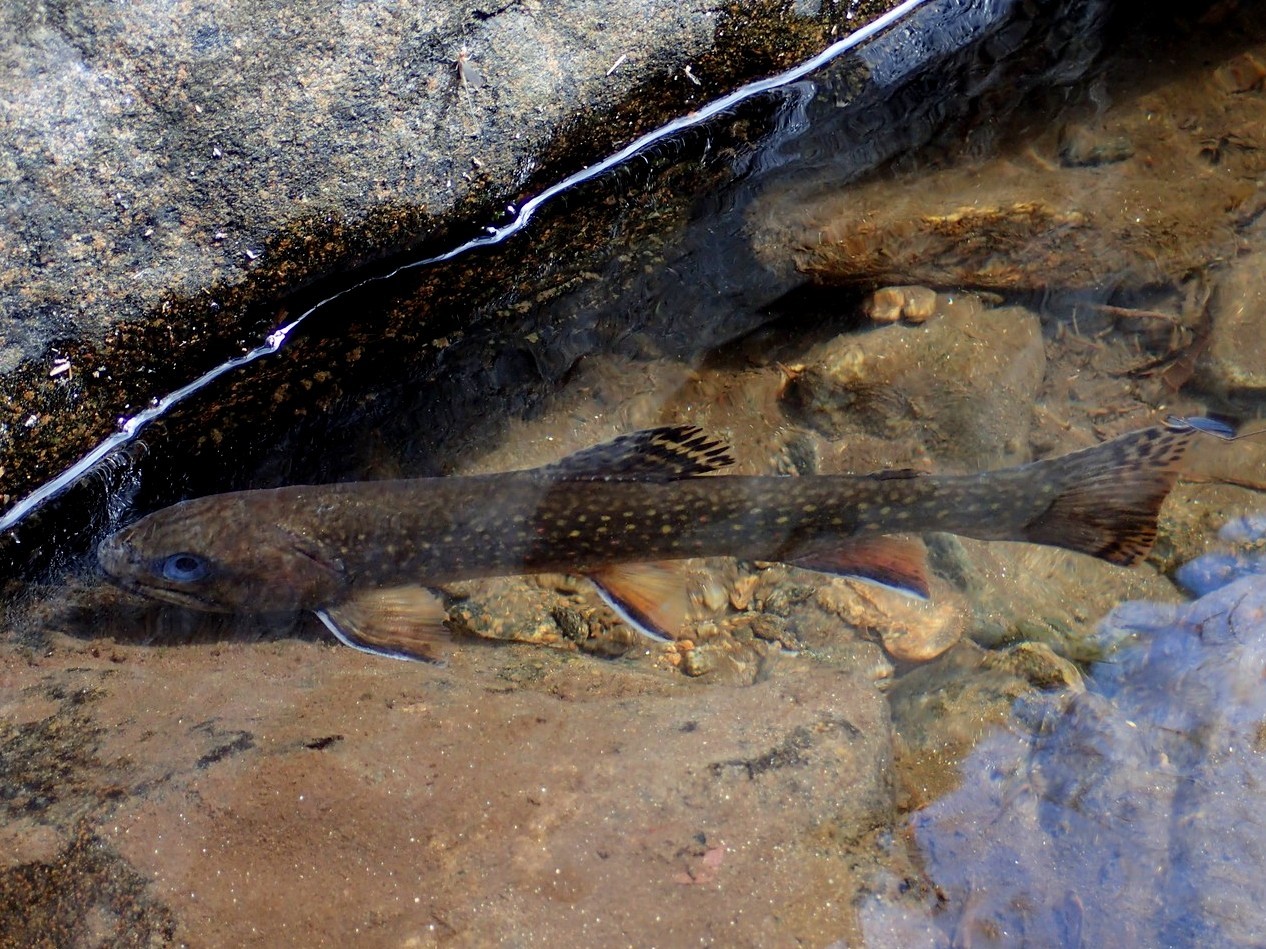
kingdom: Animalia
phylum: Chordata
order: Salmoniformes
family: Salmonidae
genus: Salvelinus
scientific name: Salvelinus fontinalis
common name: Brook trout
